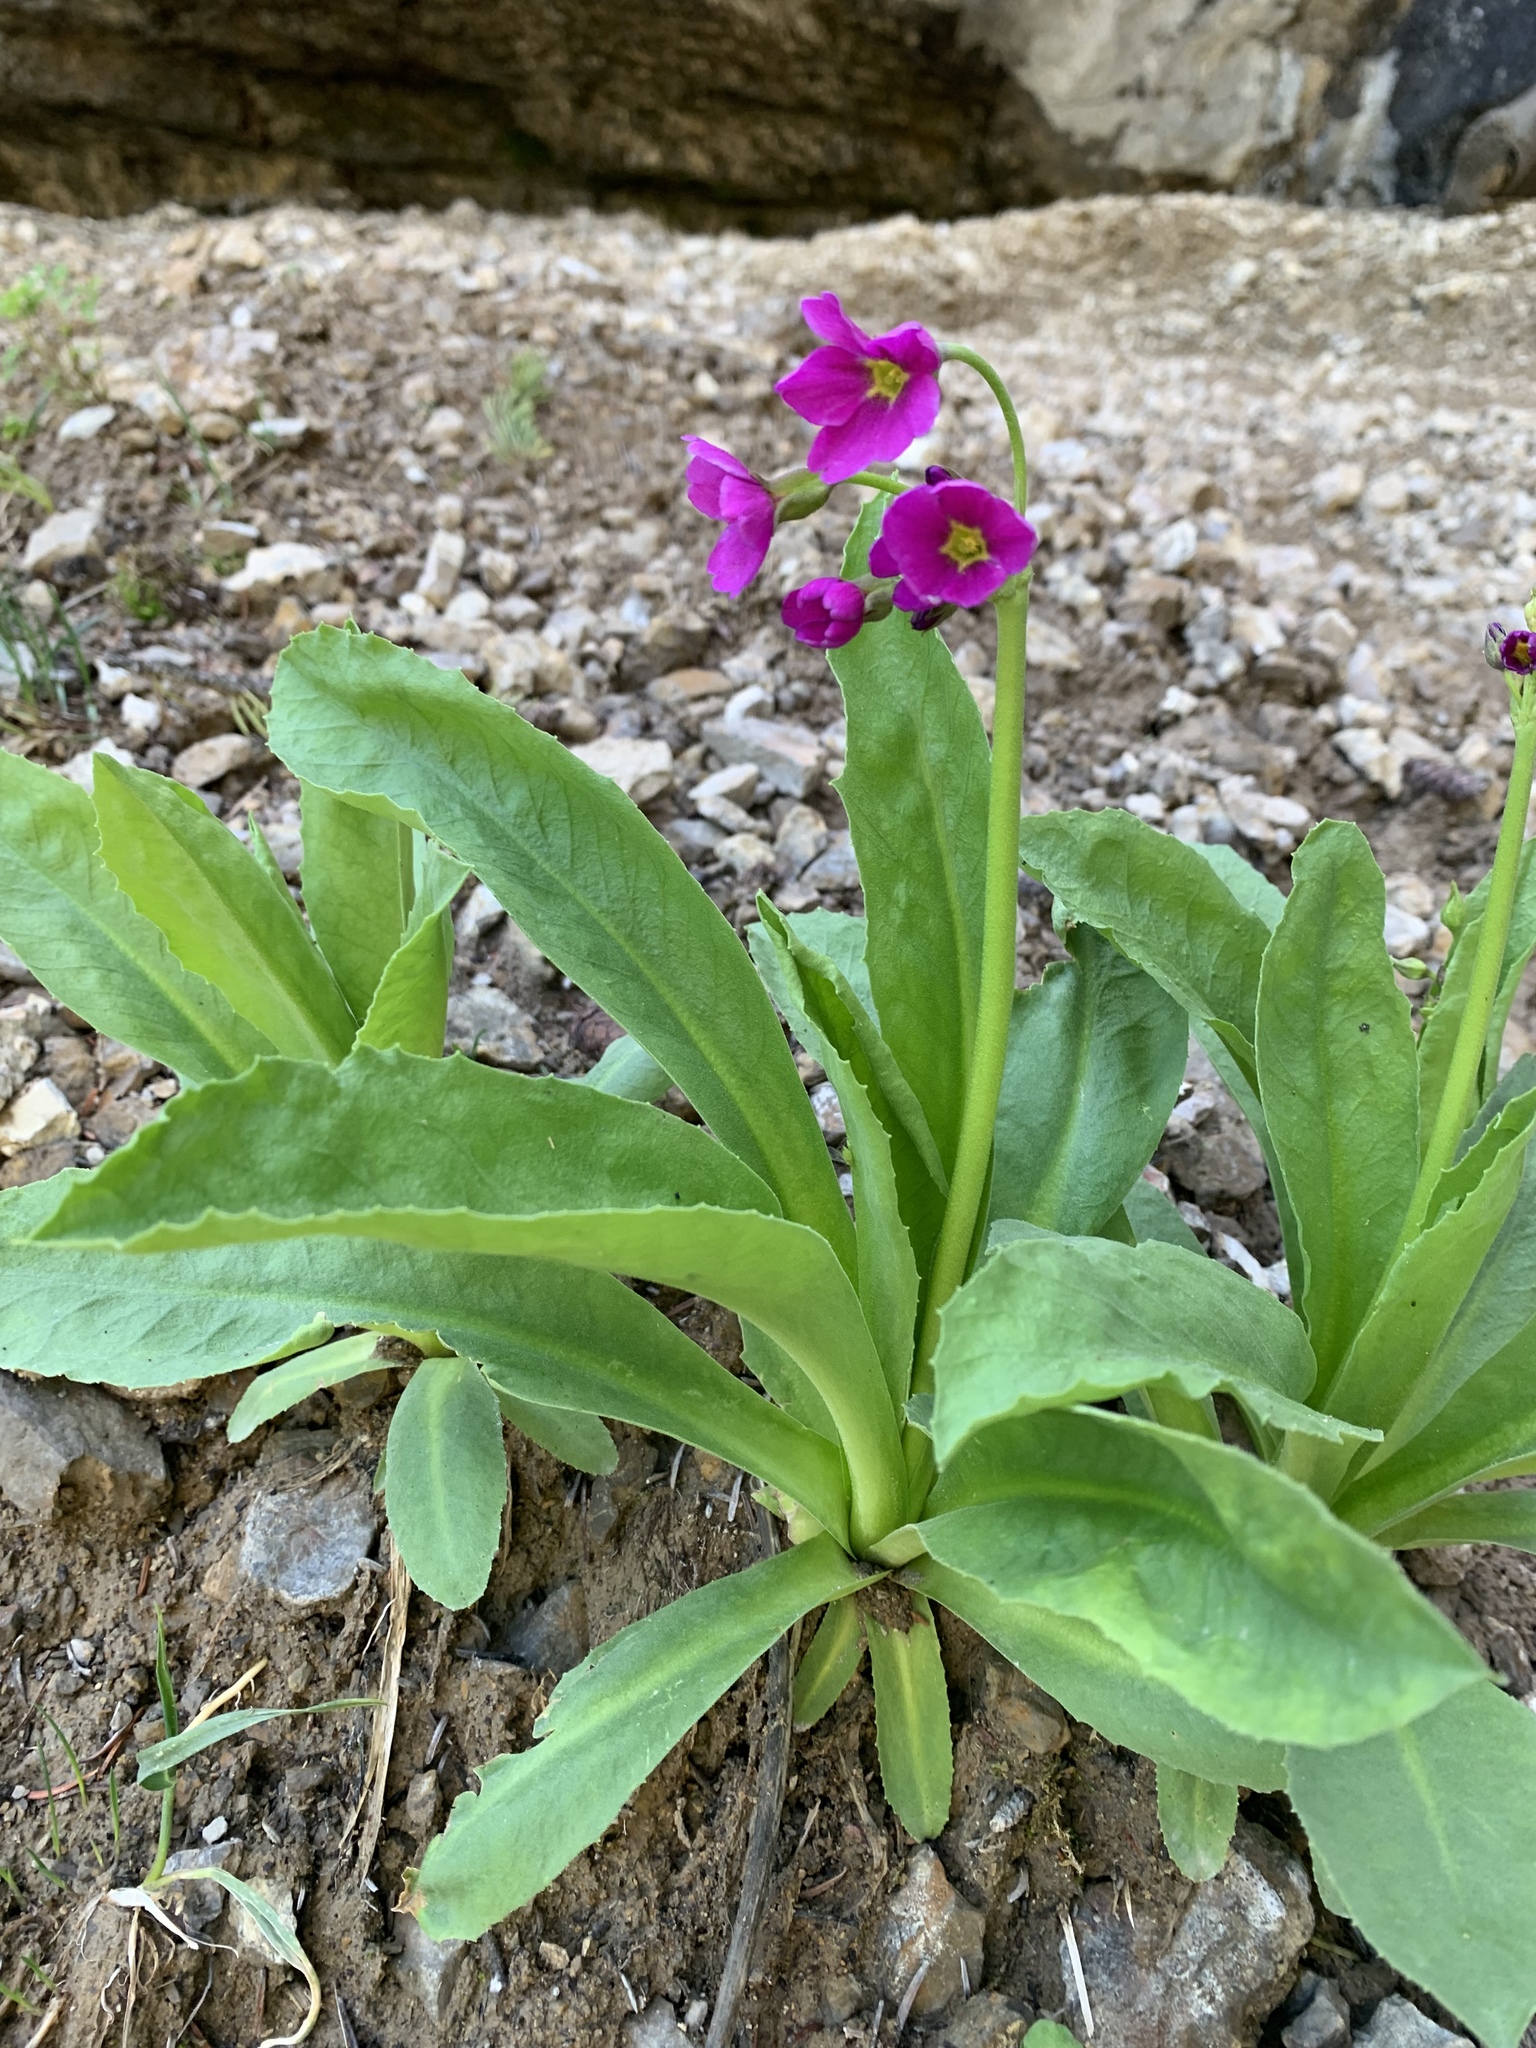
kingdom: Plantae
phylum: Tracheophyta
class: Magnoliopsida
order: Ericales
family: Primulaceae
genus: Primula
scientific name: Primula parryi
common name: Parry's primrose
